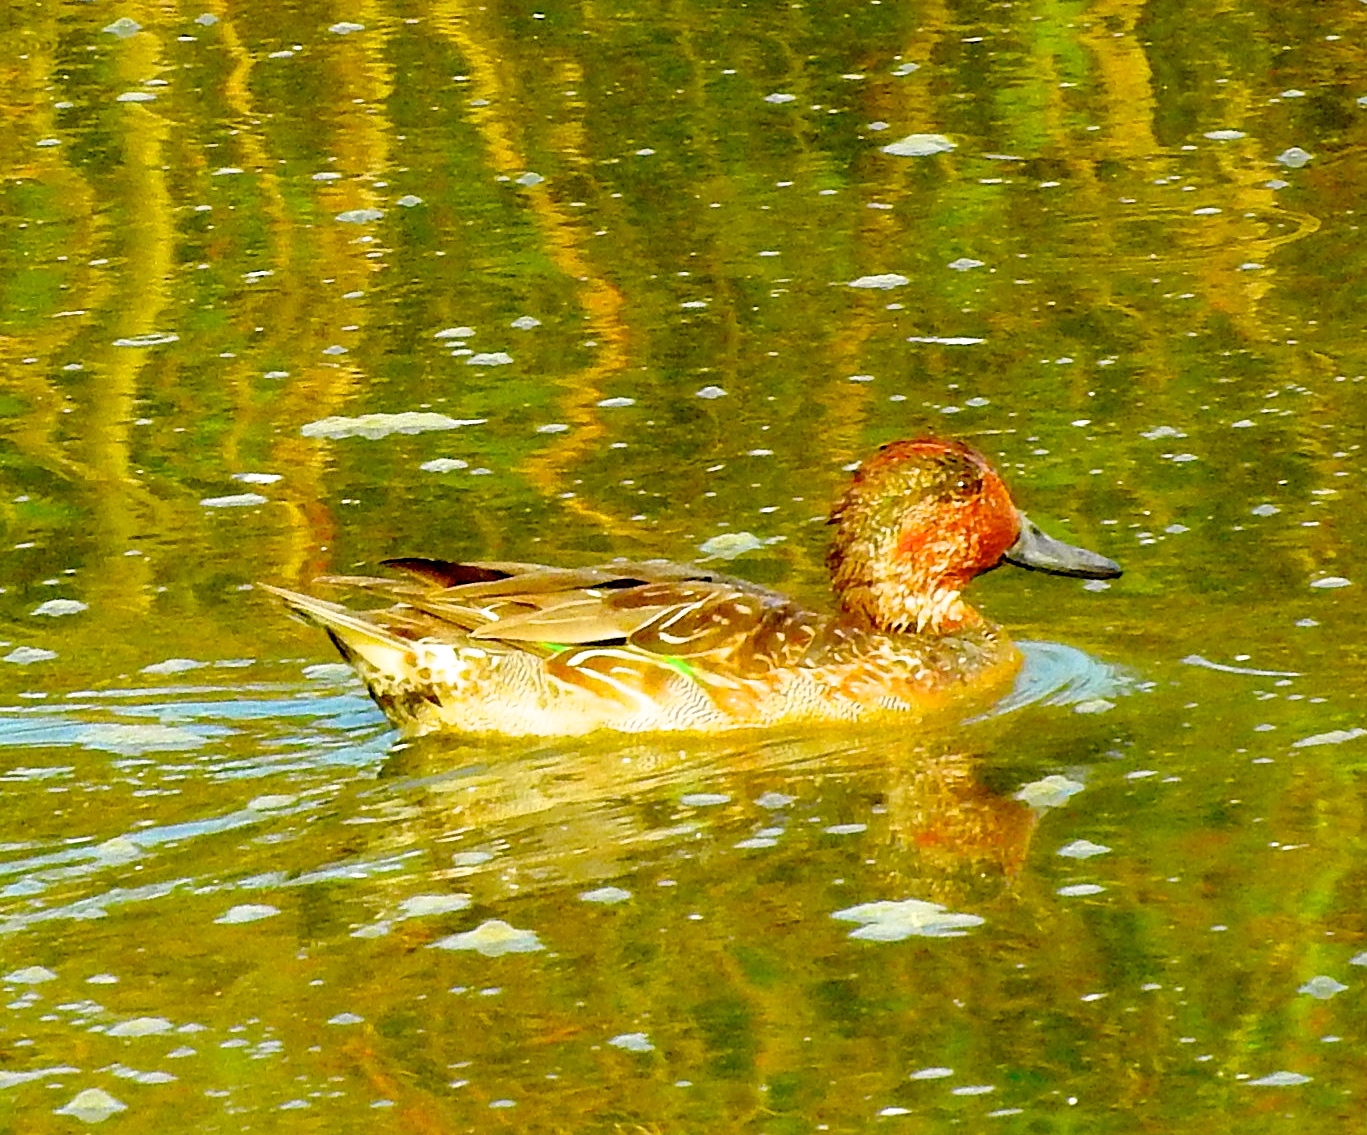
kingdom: Animalia
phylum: Chordata
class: Aves
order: Anseriformes
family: Anatidae
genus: Anas
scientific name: Anas crecca
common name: Eurasian teal
